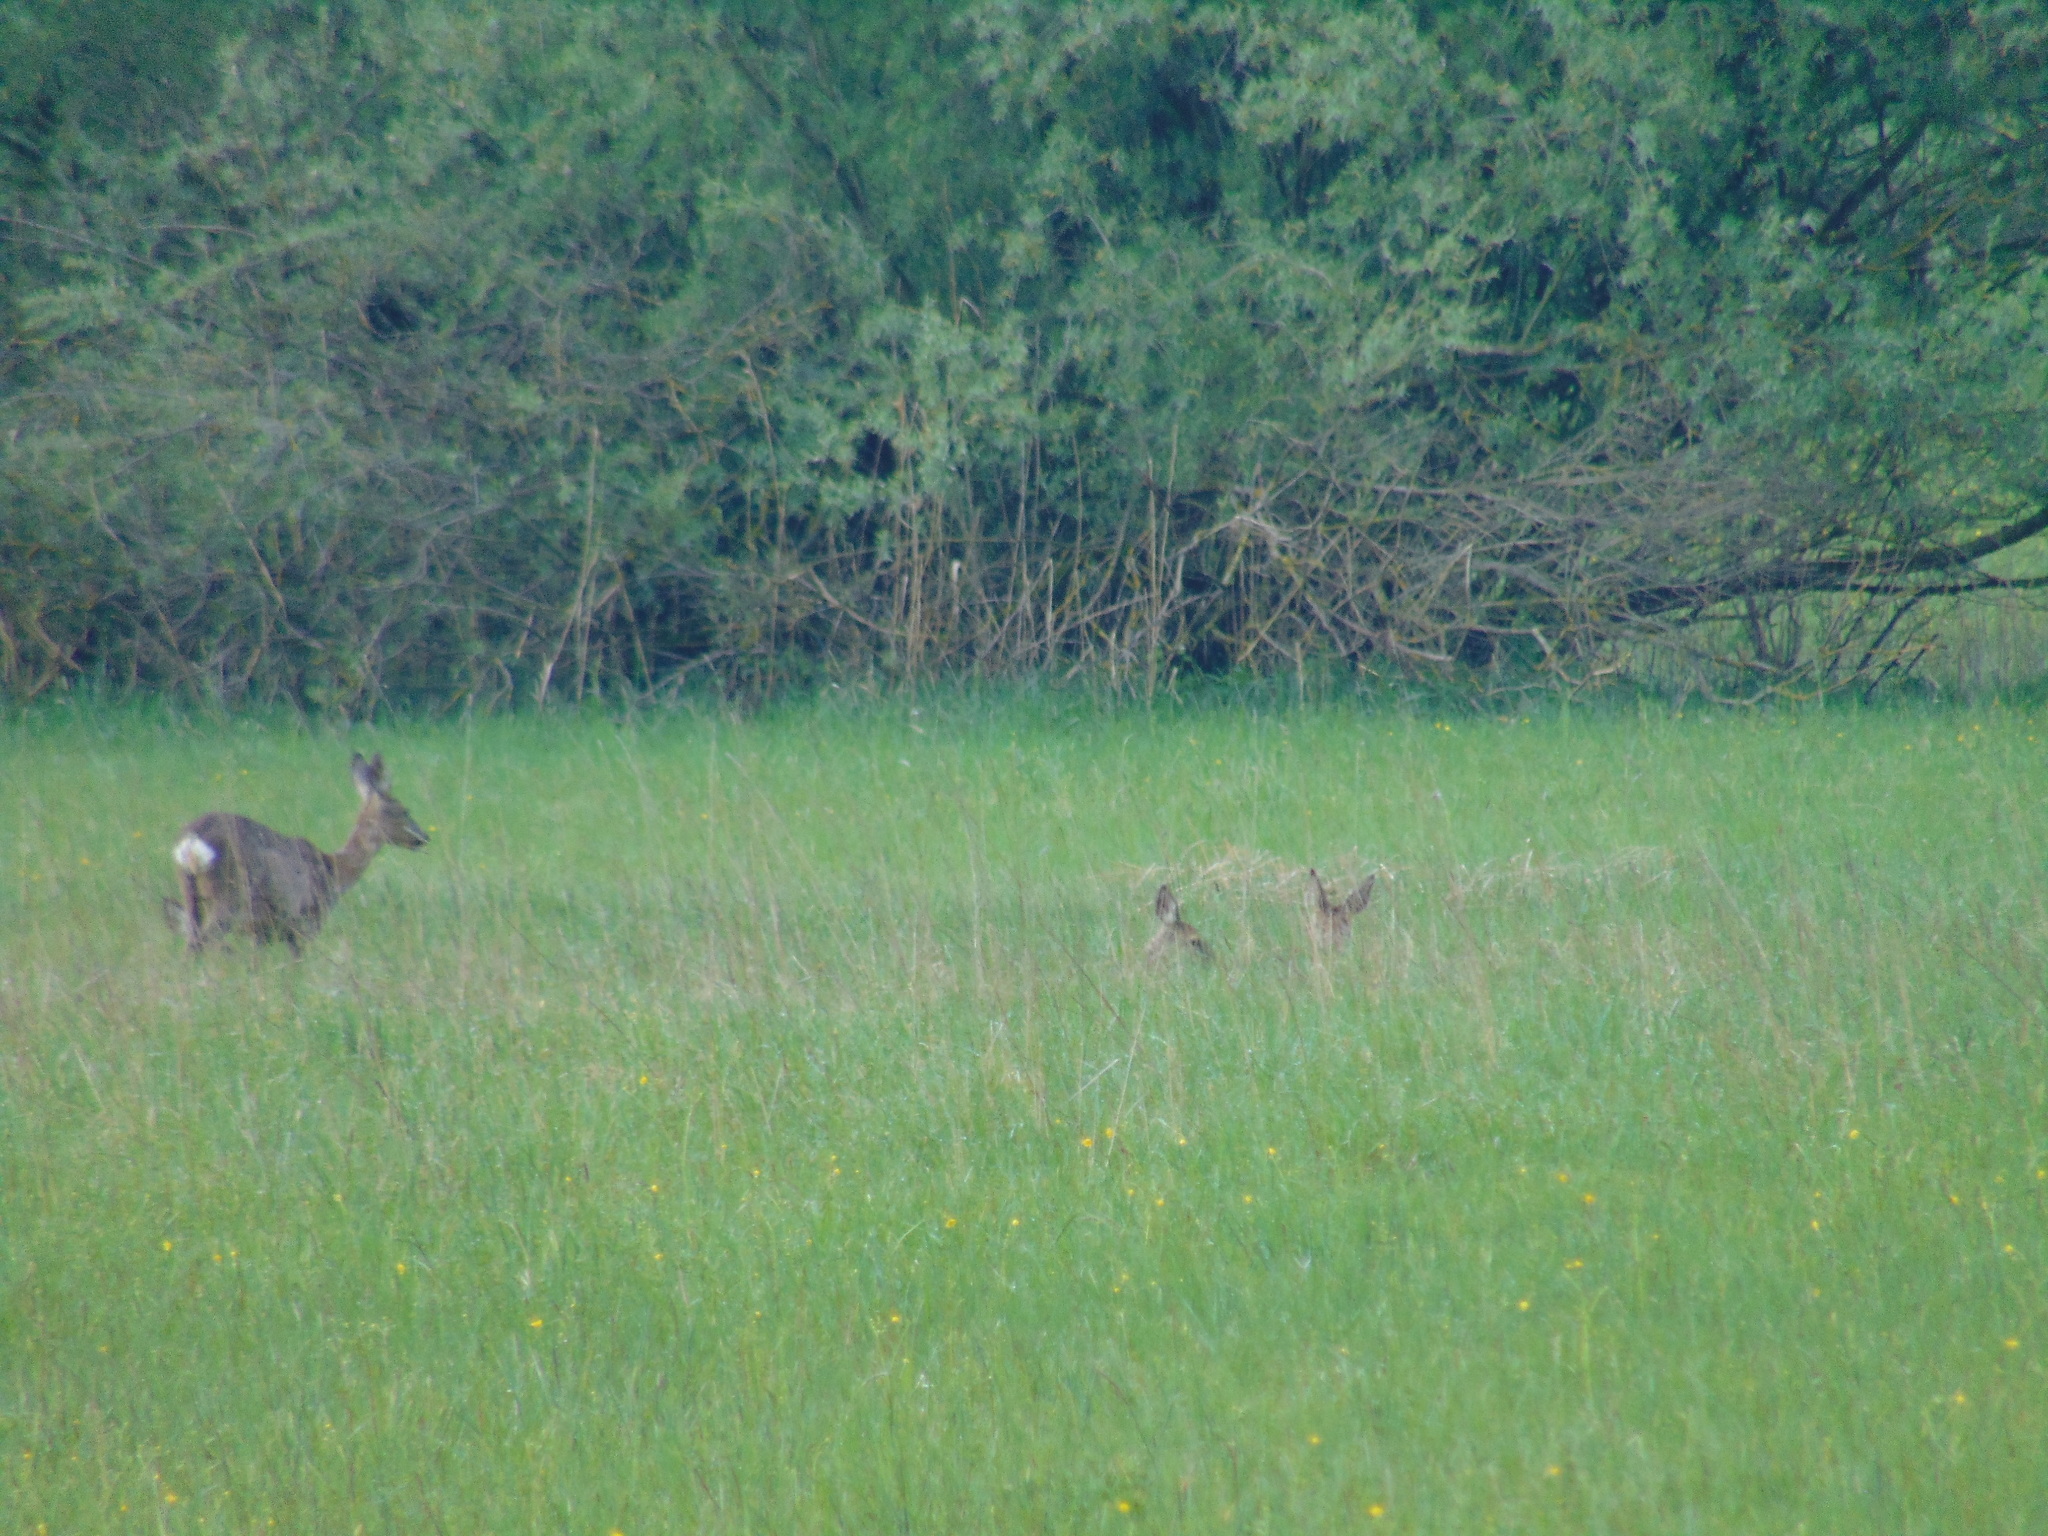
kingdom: Animalia
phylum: Chordata
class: Mammalia
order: Artiodactyla
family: Cervidae
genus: Capreolus
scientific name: Capreolus capreolus
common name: Western roe deer
